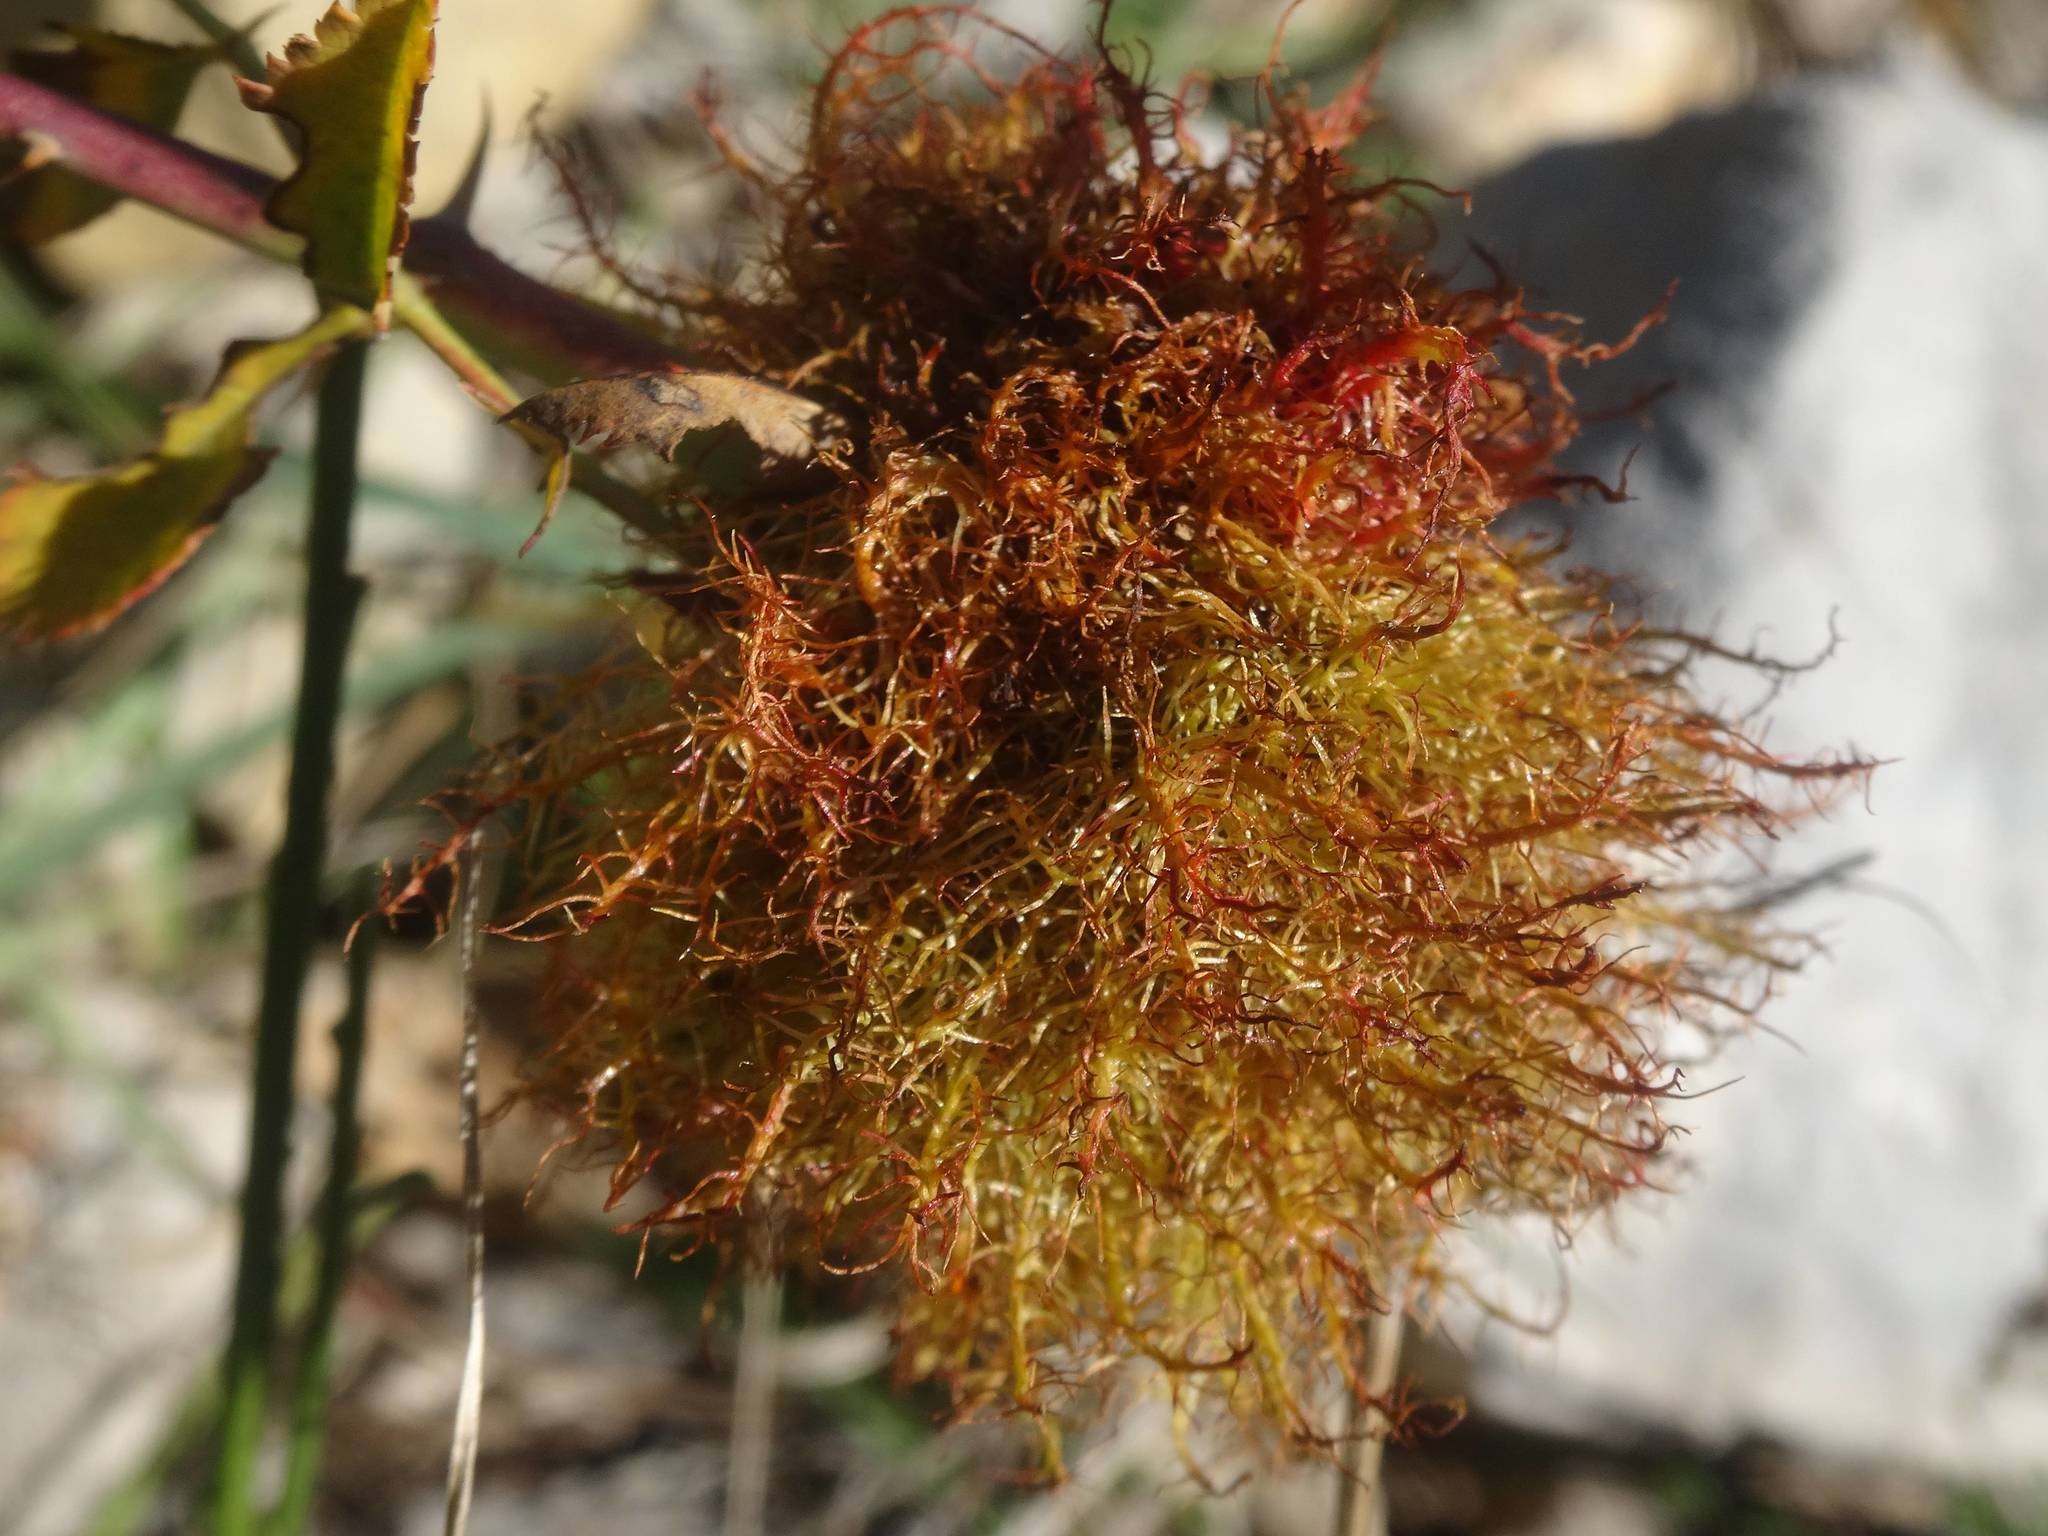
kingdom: Animalia
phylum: Arthropoda
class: Insecta
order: Hymenoptera
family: Cynipidae
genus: Diplolepis
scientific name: Diplolepis rosae
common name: Bedeguar gall
